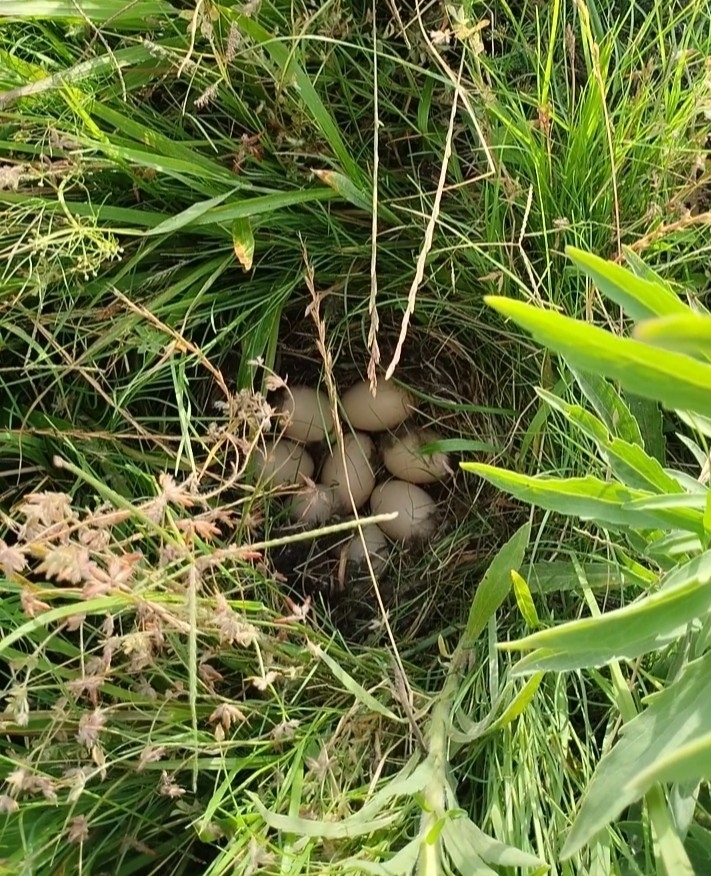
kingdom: Animalia
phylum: Chordata
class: Aves
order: Anseriformes
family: Anatidae
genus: Anas
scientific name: Anas georgica
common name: Yellow-billed pintail
